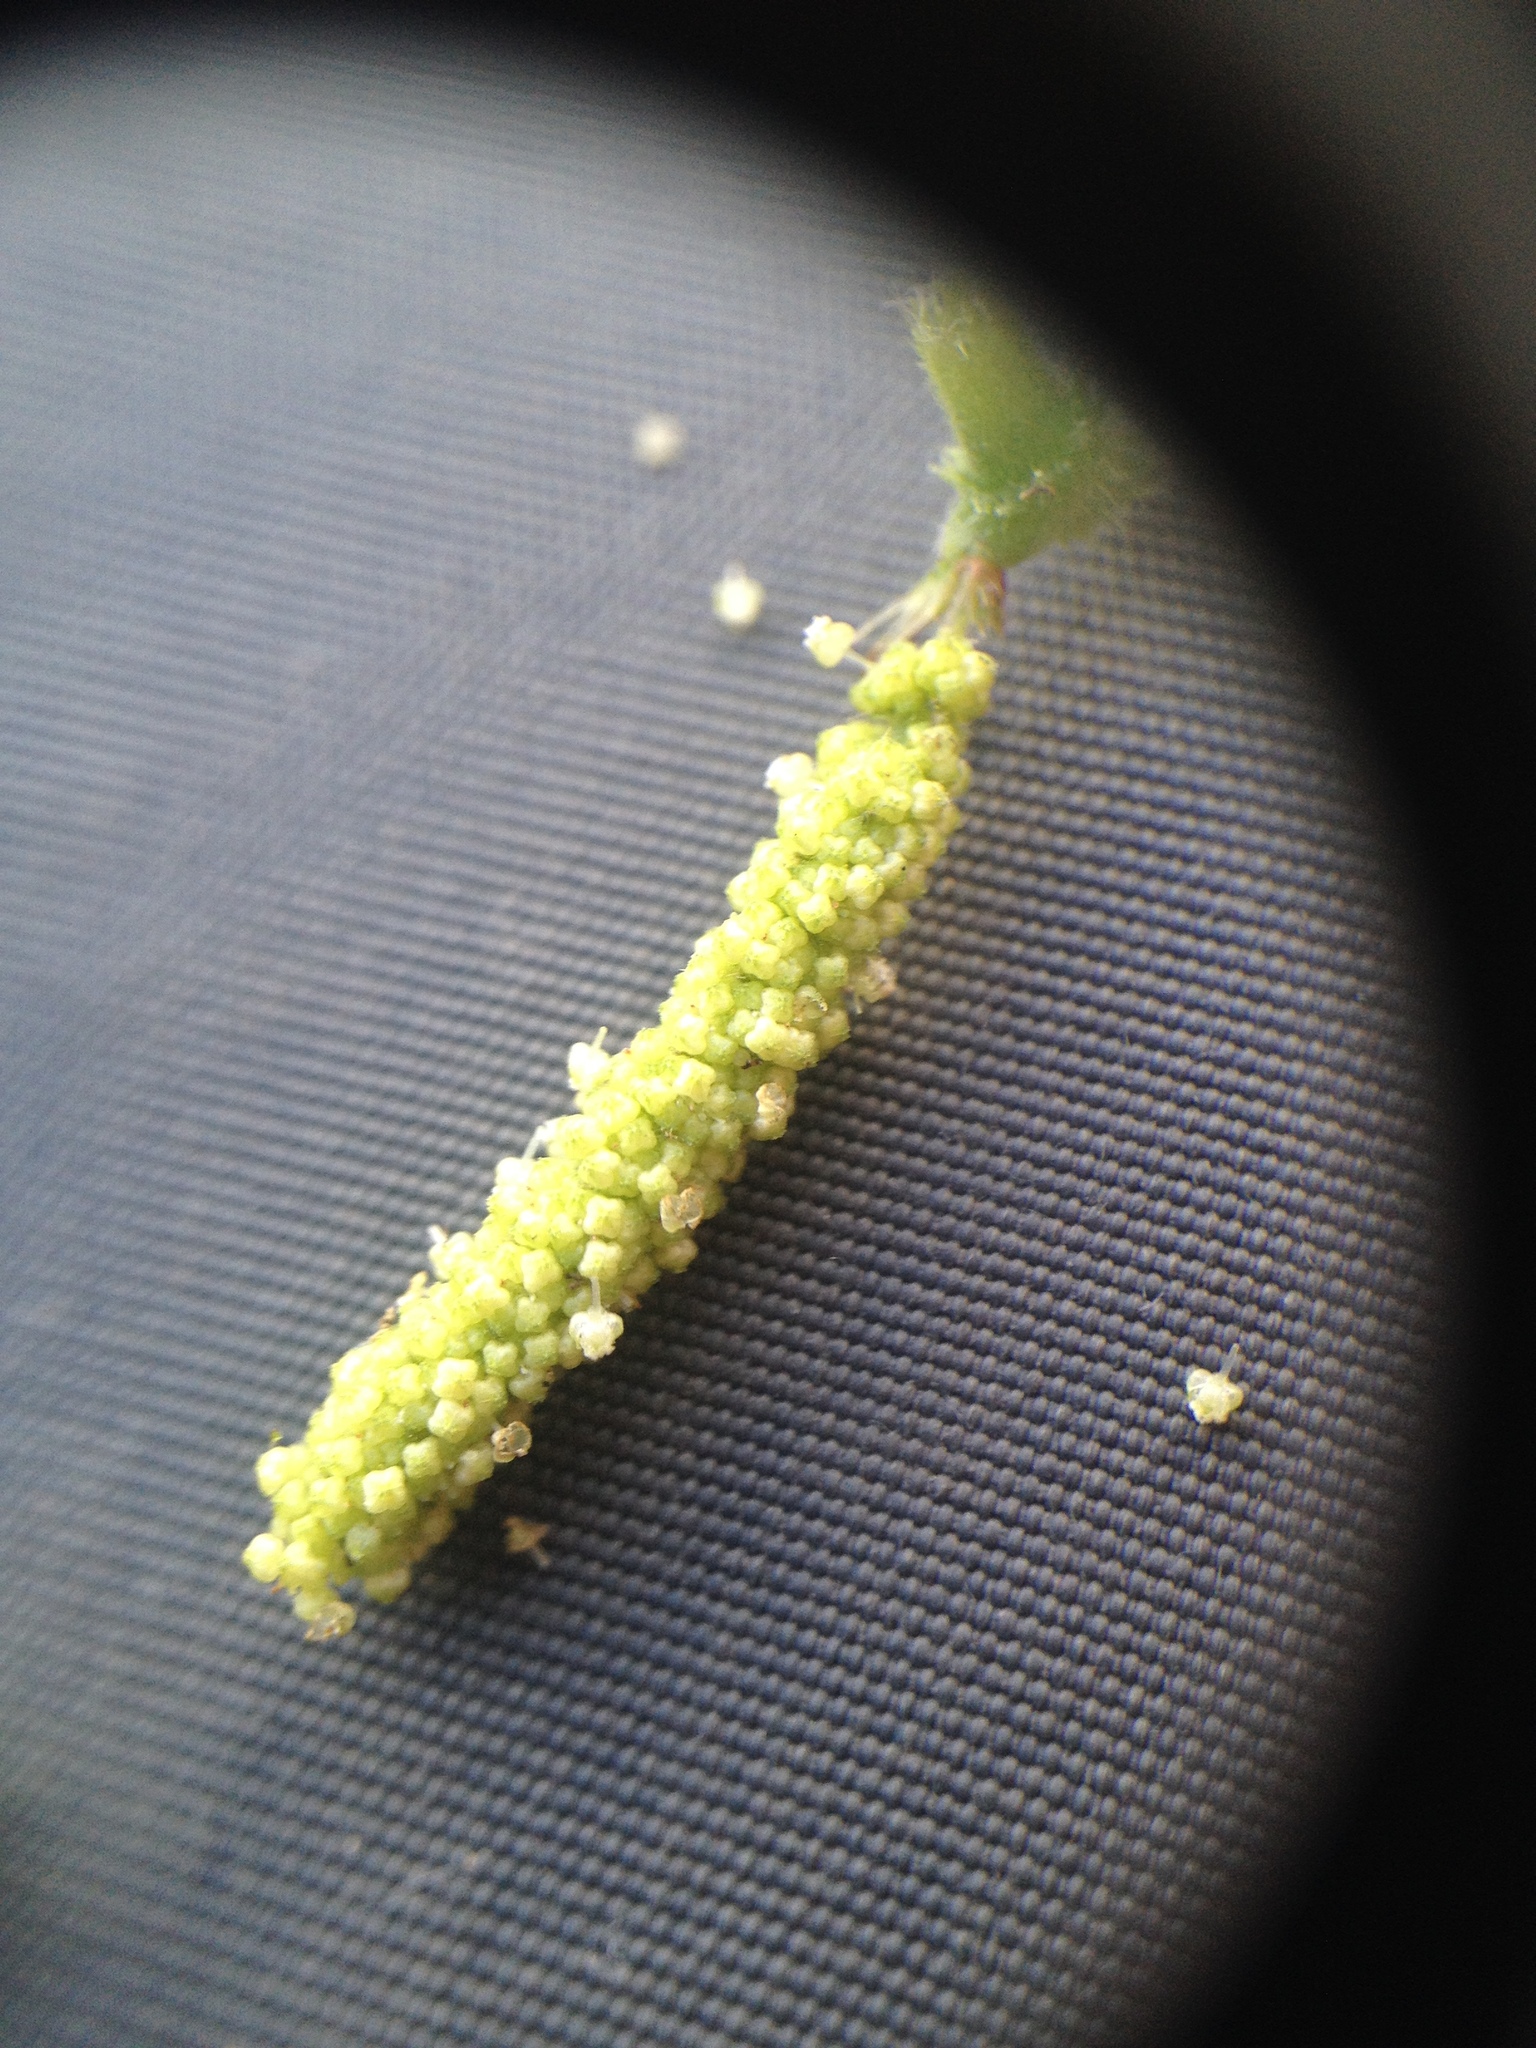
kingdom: Plantae
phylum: Tracheophyta
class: Magnoliopsida
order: Malpighiales
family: Euphorbiaceae
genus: Acalypha
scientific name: Acalypha communis
